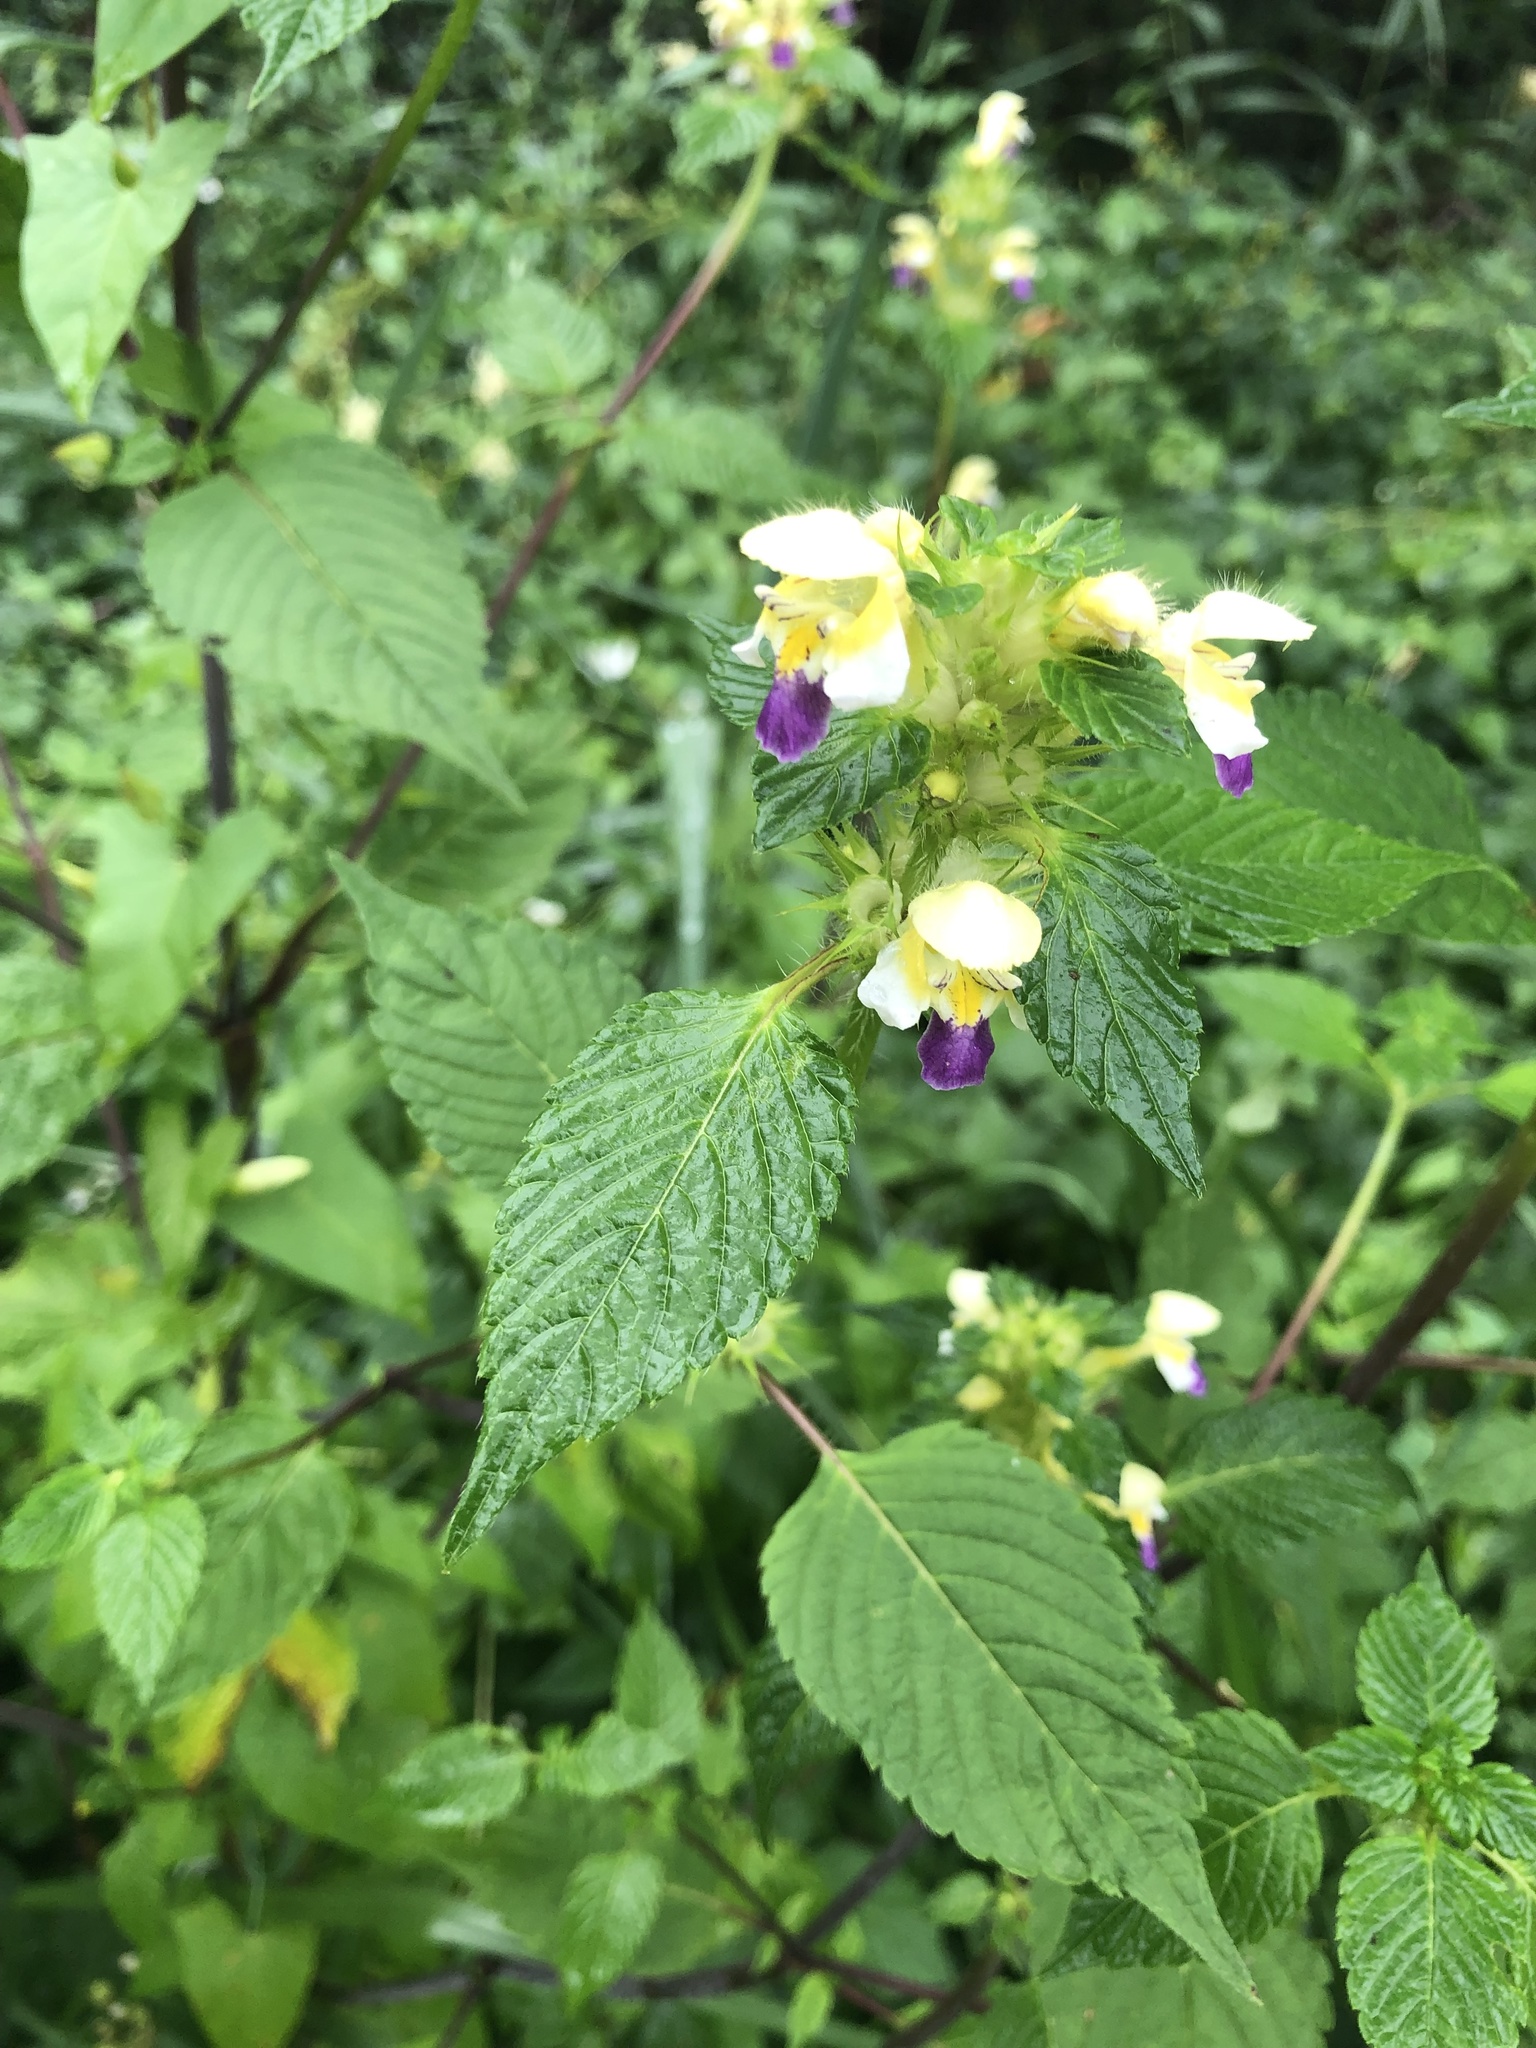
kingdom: Plantae
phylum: Tracheophyta
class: Magnoliopsida
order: Lamiales
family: Lamiaceae
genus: Galeopsis
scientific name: Galeopsis speciosa
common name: Large-flowered hemp-nettle
